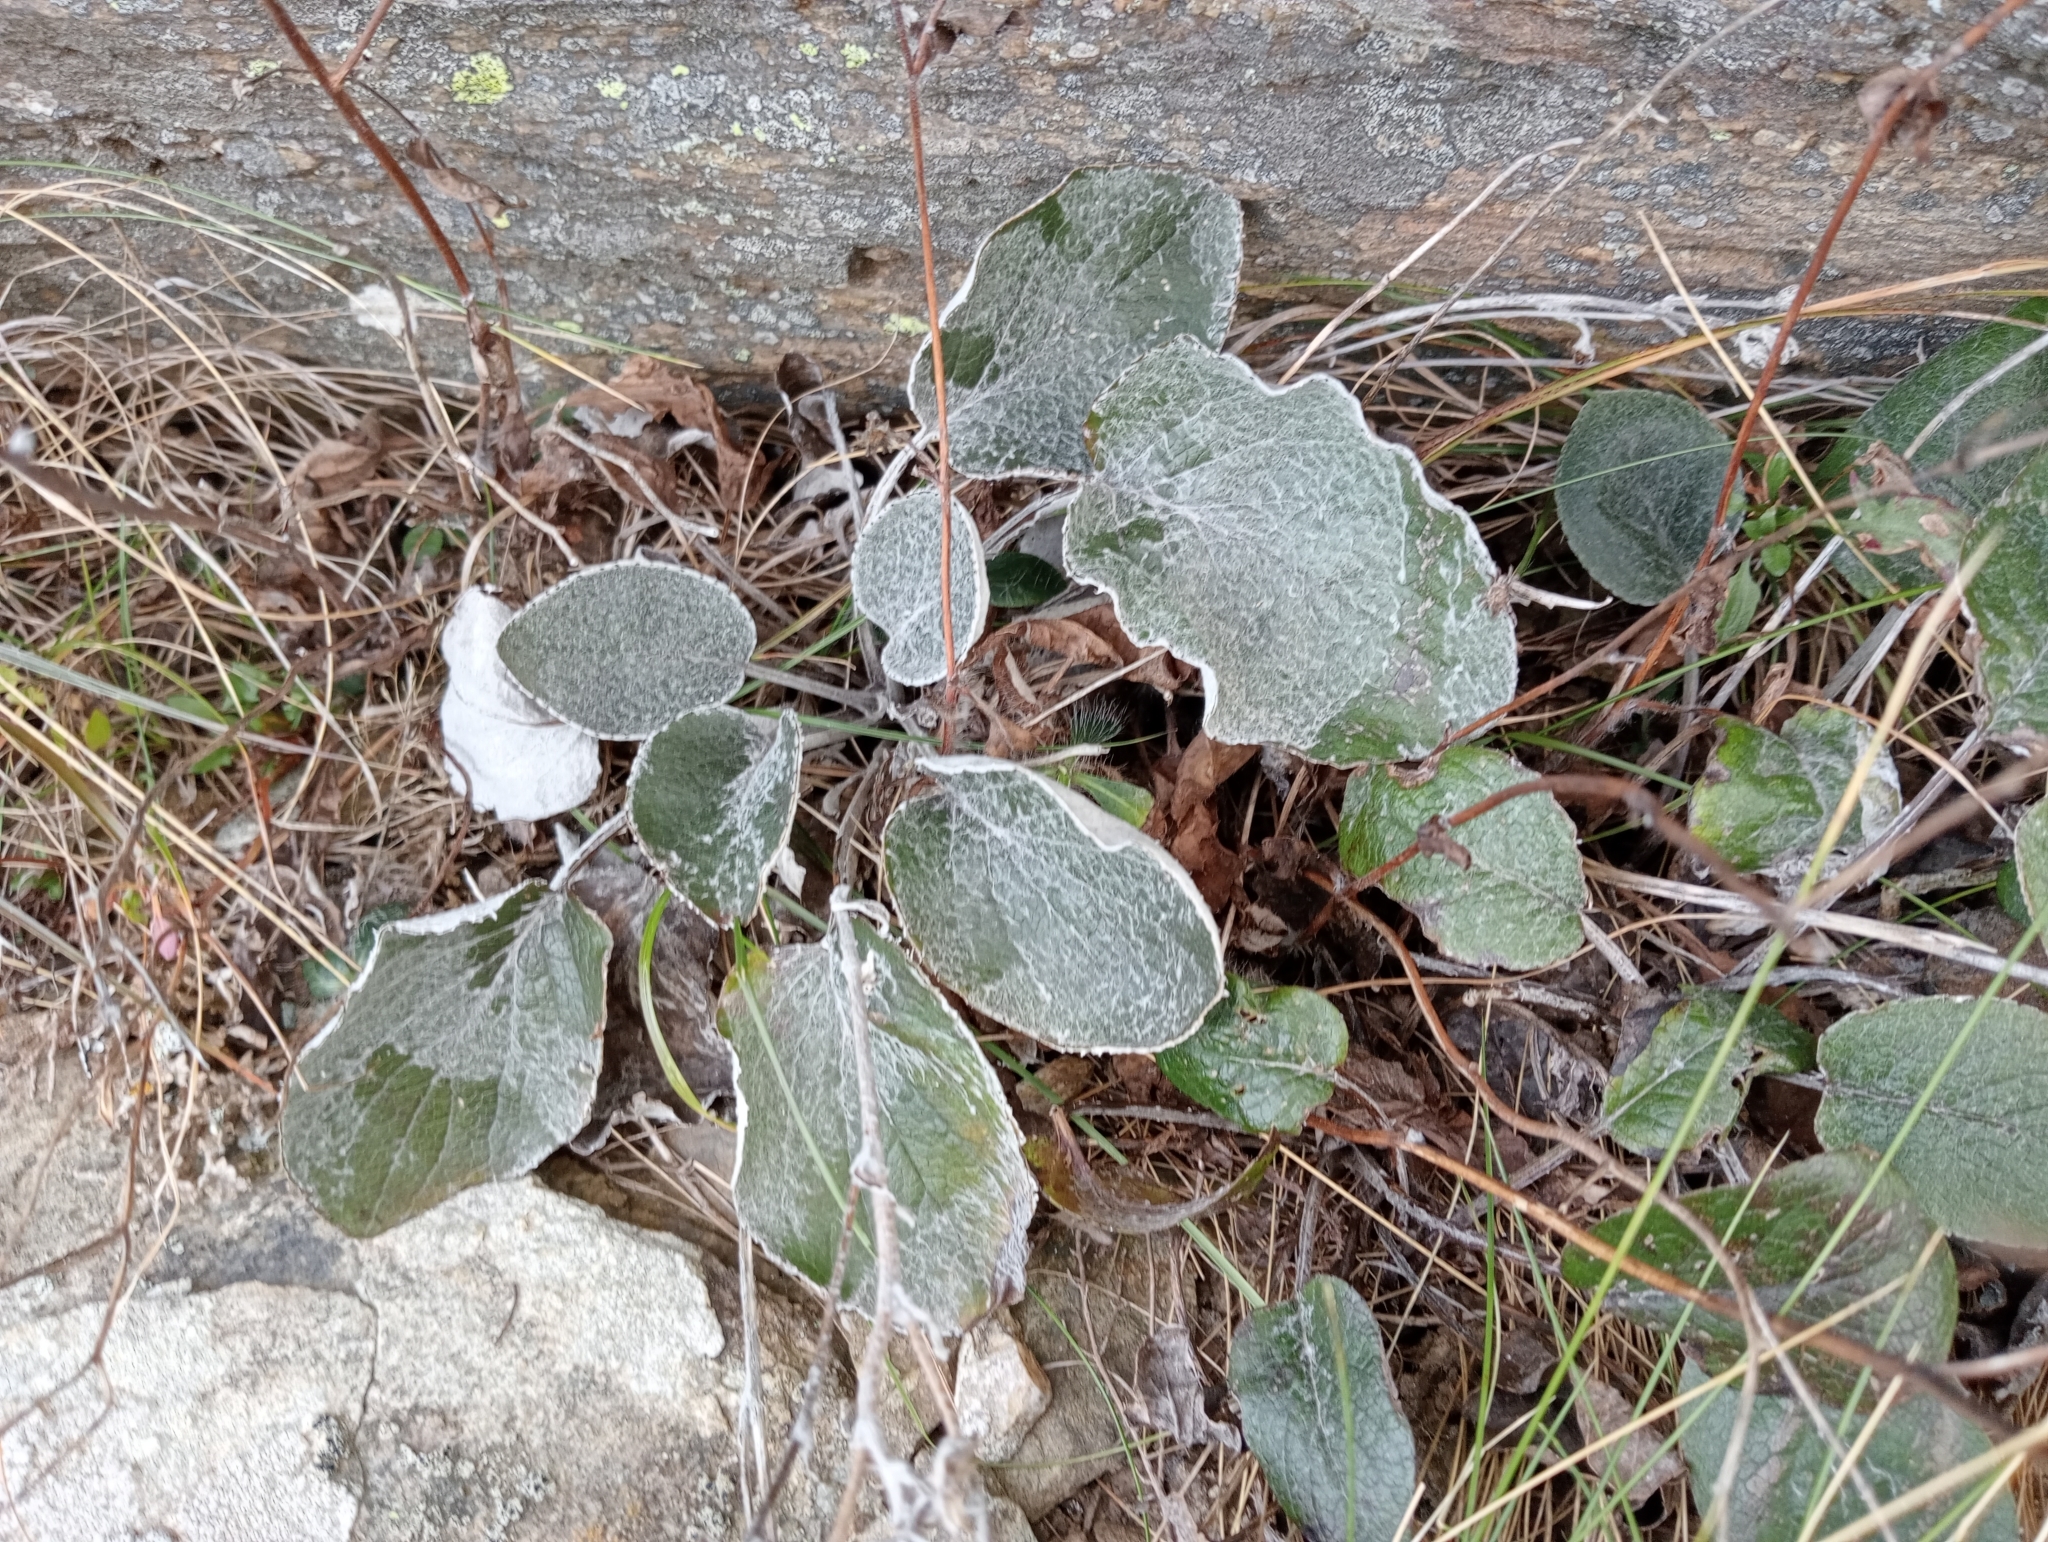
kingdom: Plantae
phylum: Tracheophyta
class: Magnoliopsida
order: Asterales
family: Asteraceae
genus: Brachyglottis
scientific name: Brachyglottis southlandica
